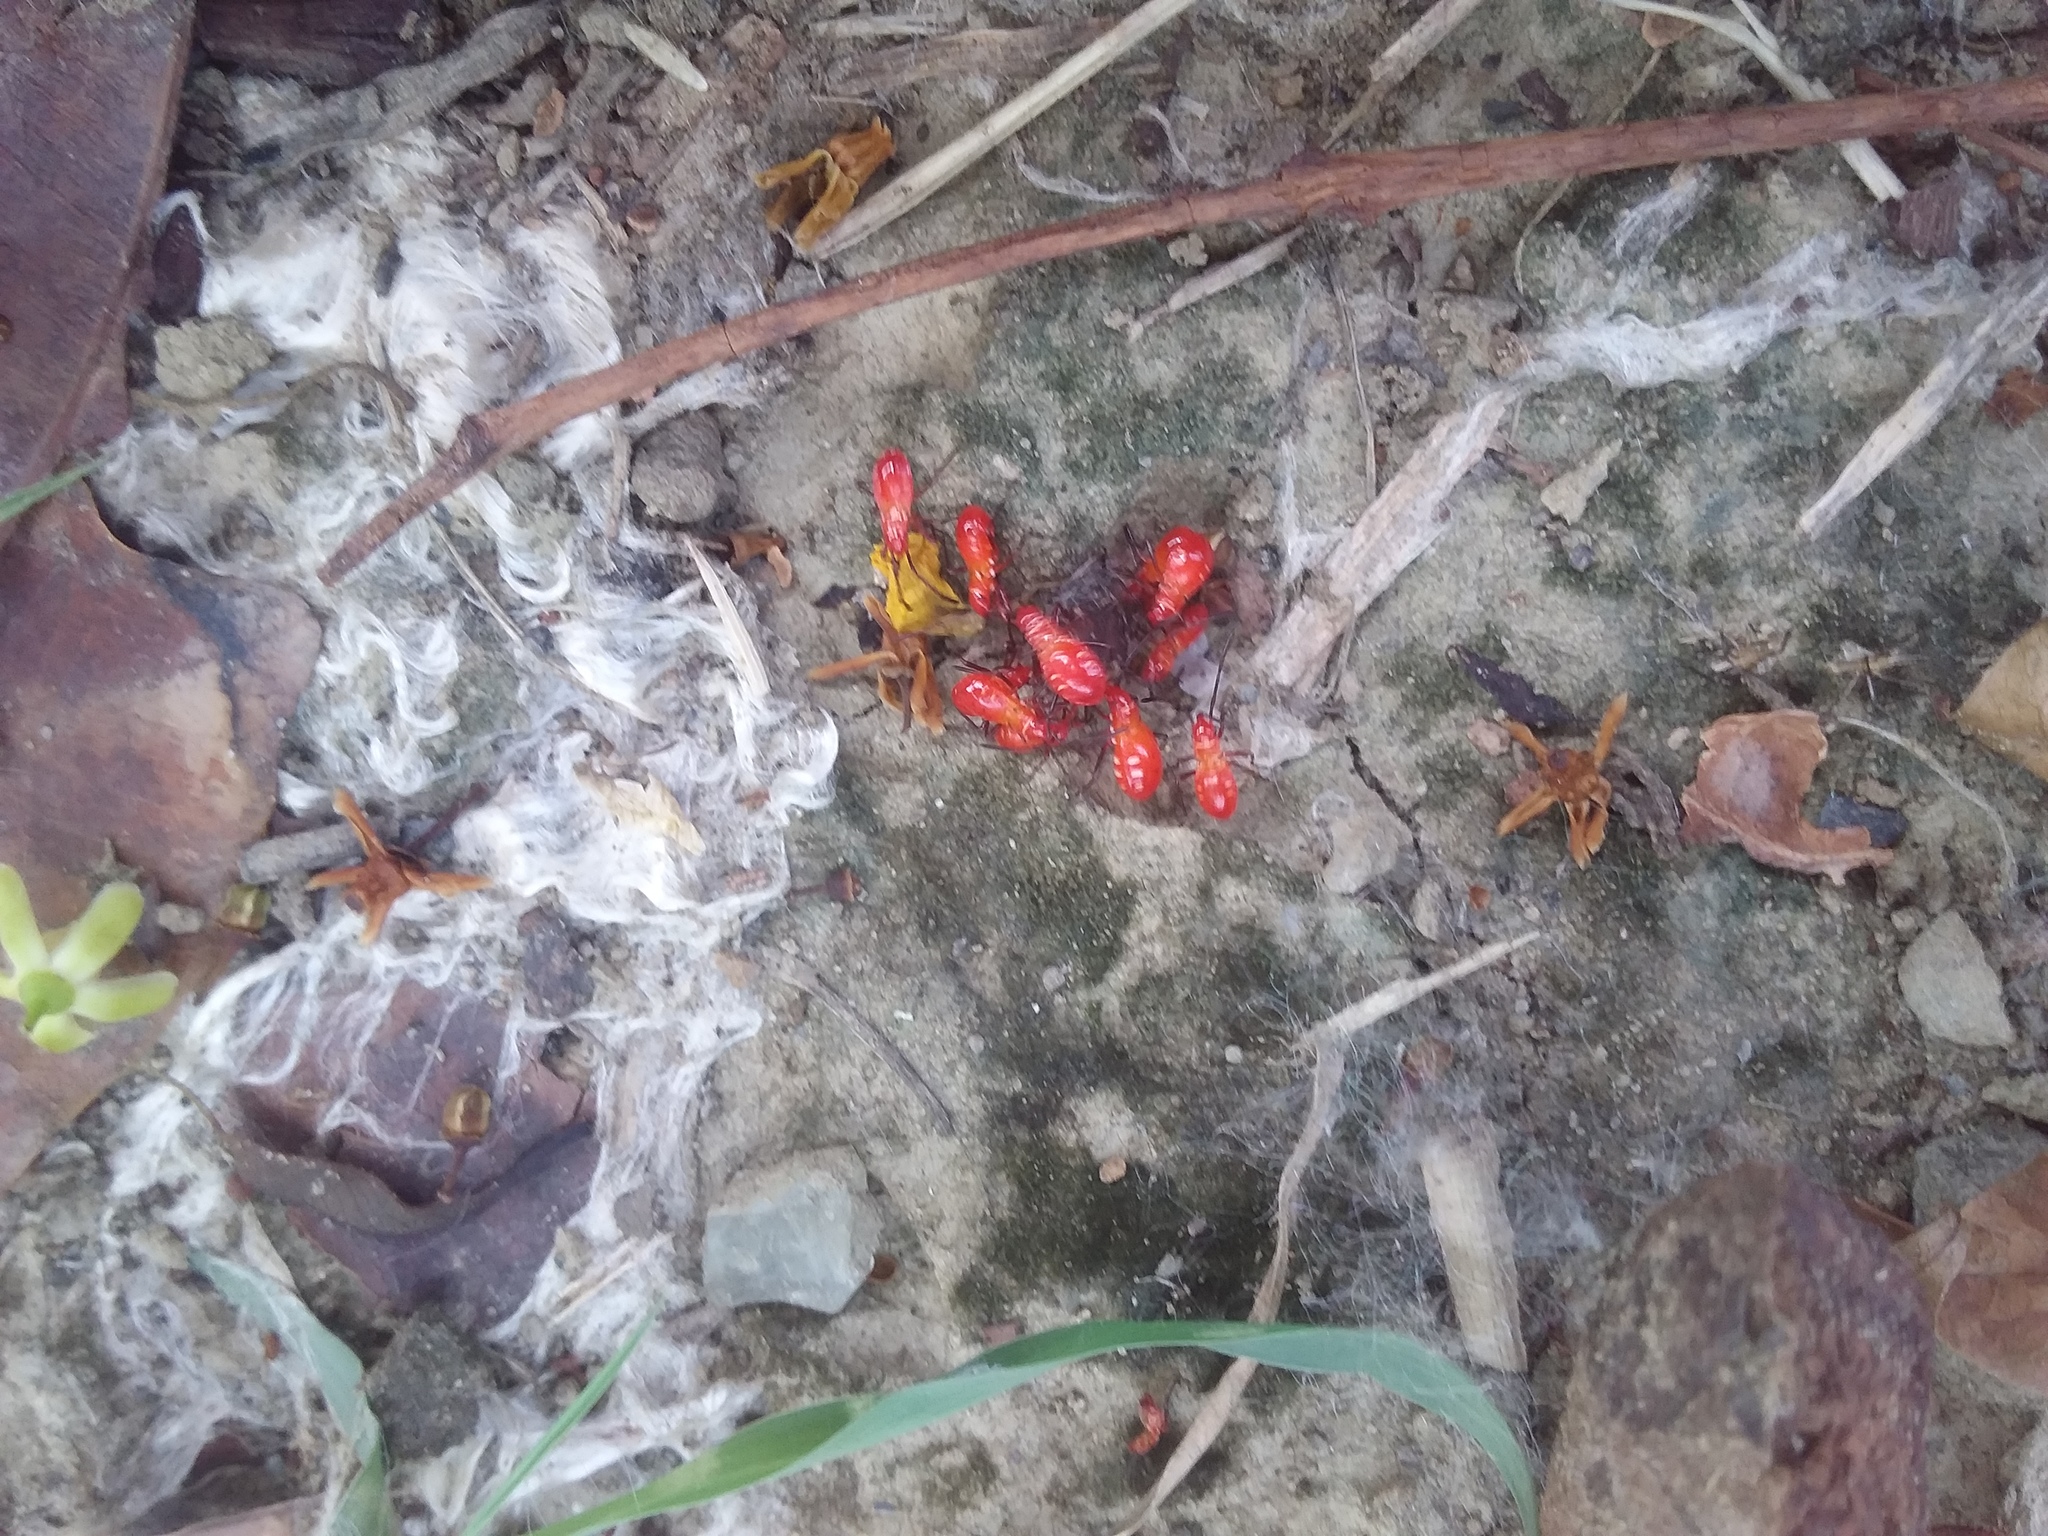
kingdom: Animalia
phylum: Arthropoda
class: Insecta
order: Hemiptera
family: Pyrrhocoridae
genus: Dysdercus
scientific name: Dysdercus cingulatus
